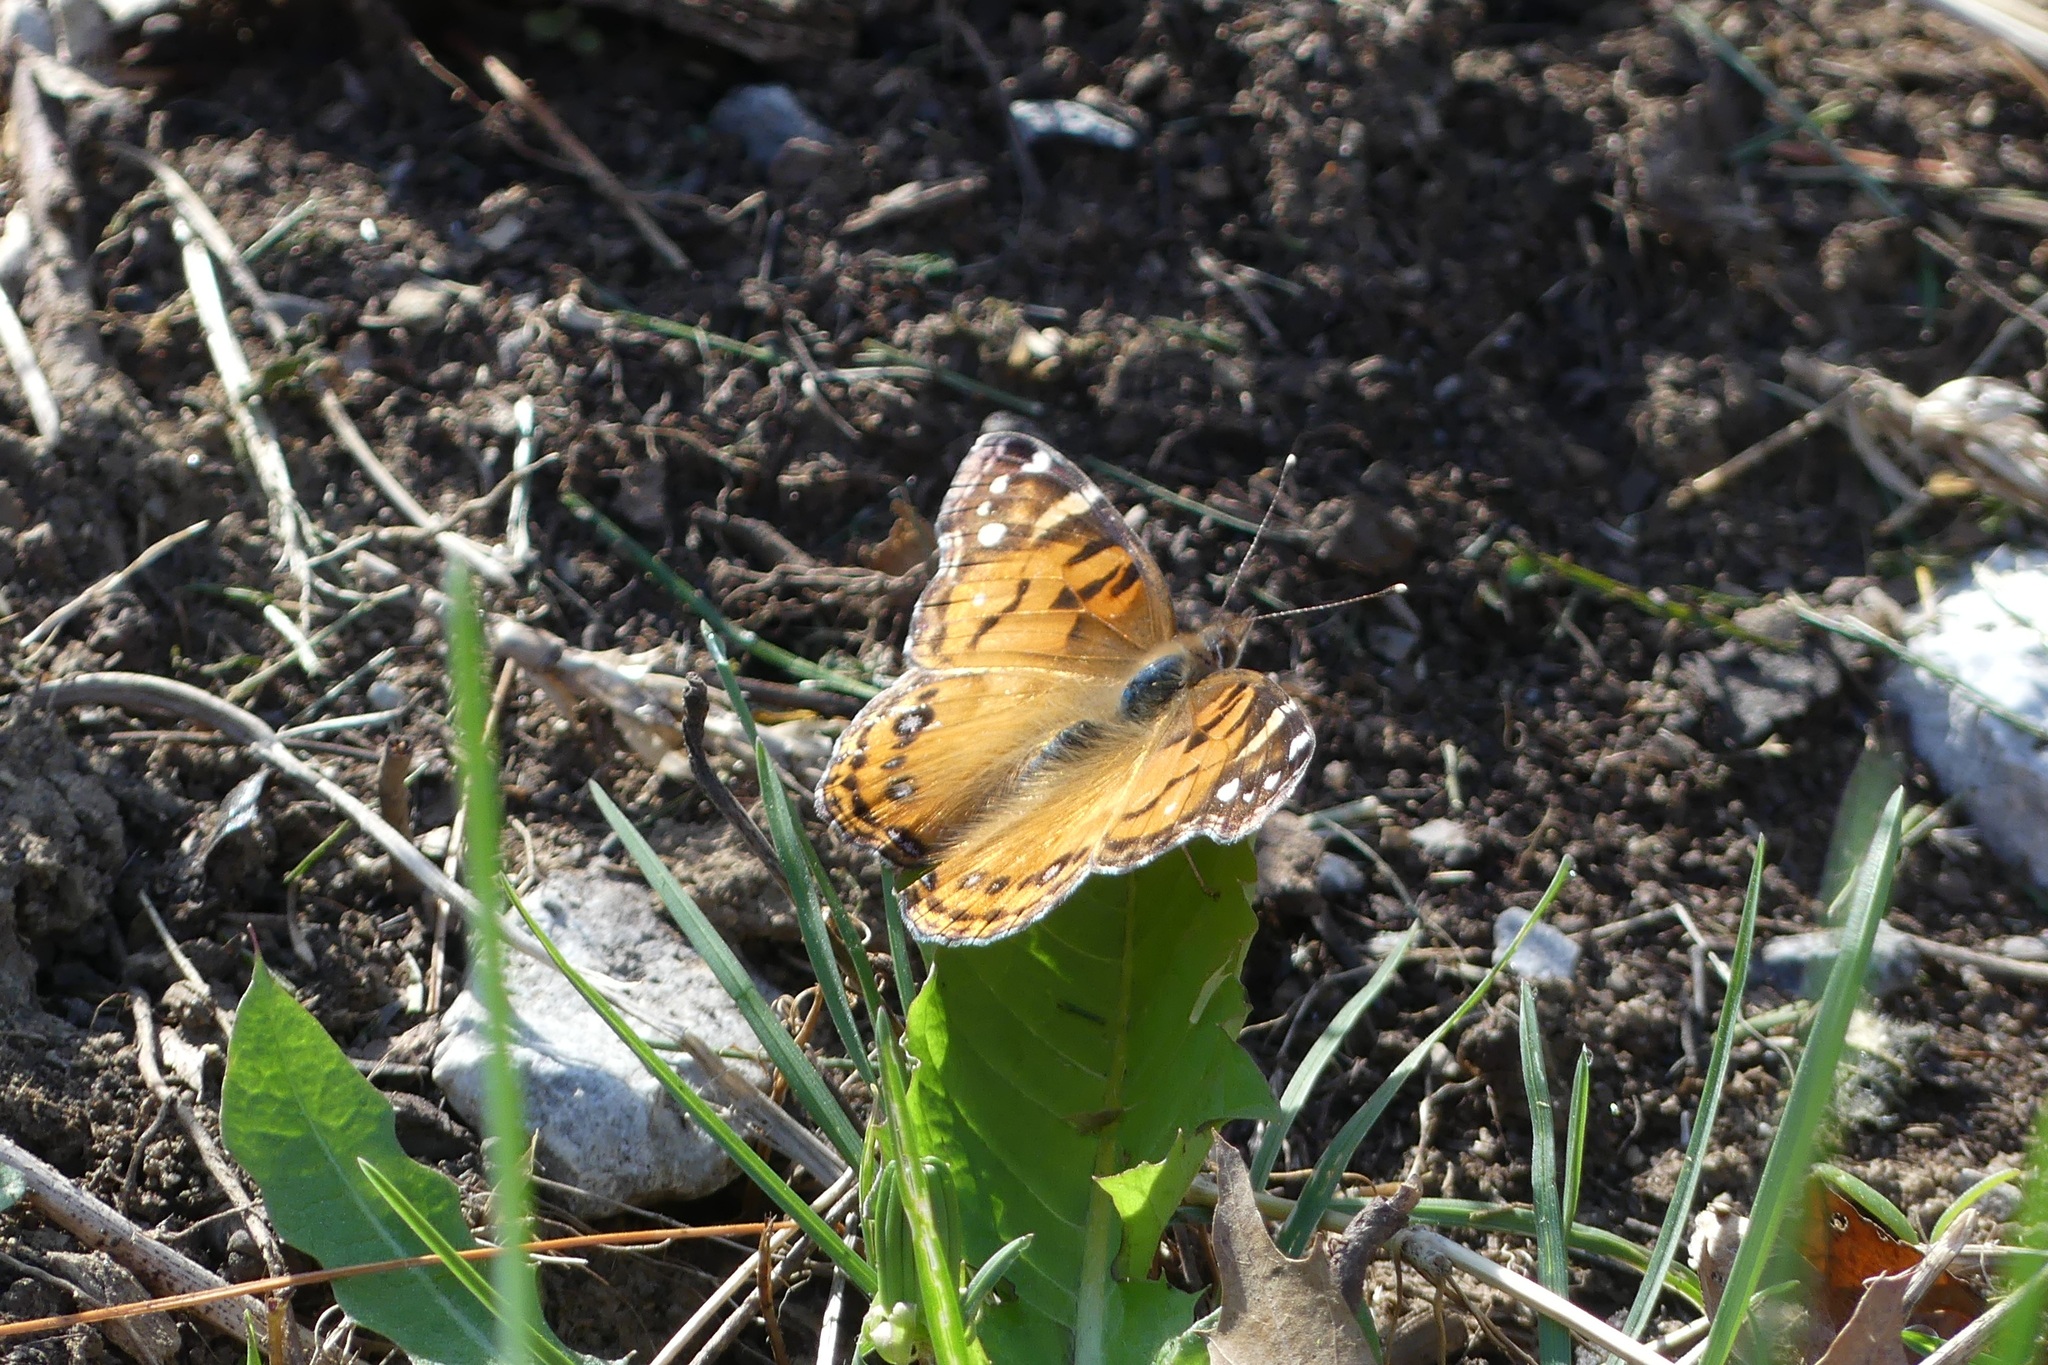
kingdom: Animalia
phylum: Arthropoda
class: Insecta
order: Lepidoptera
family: Nymphalidae
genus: Vanessa
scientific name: Vanessa virginiensis
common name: American lady
